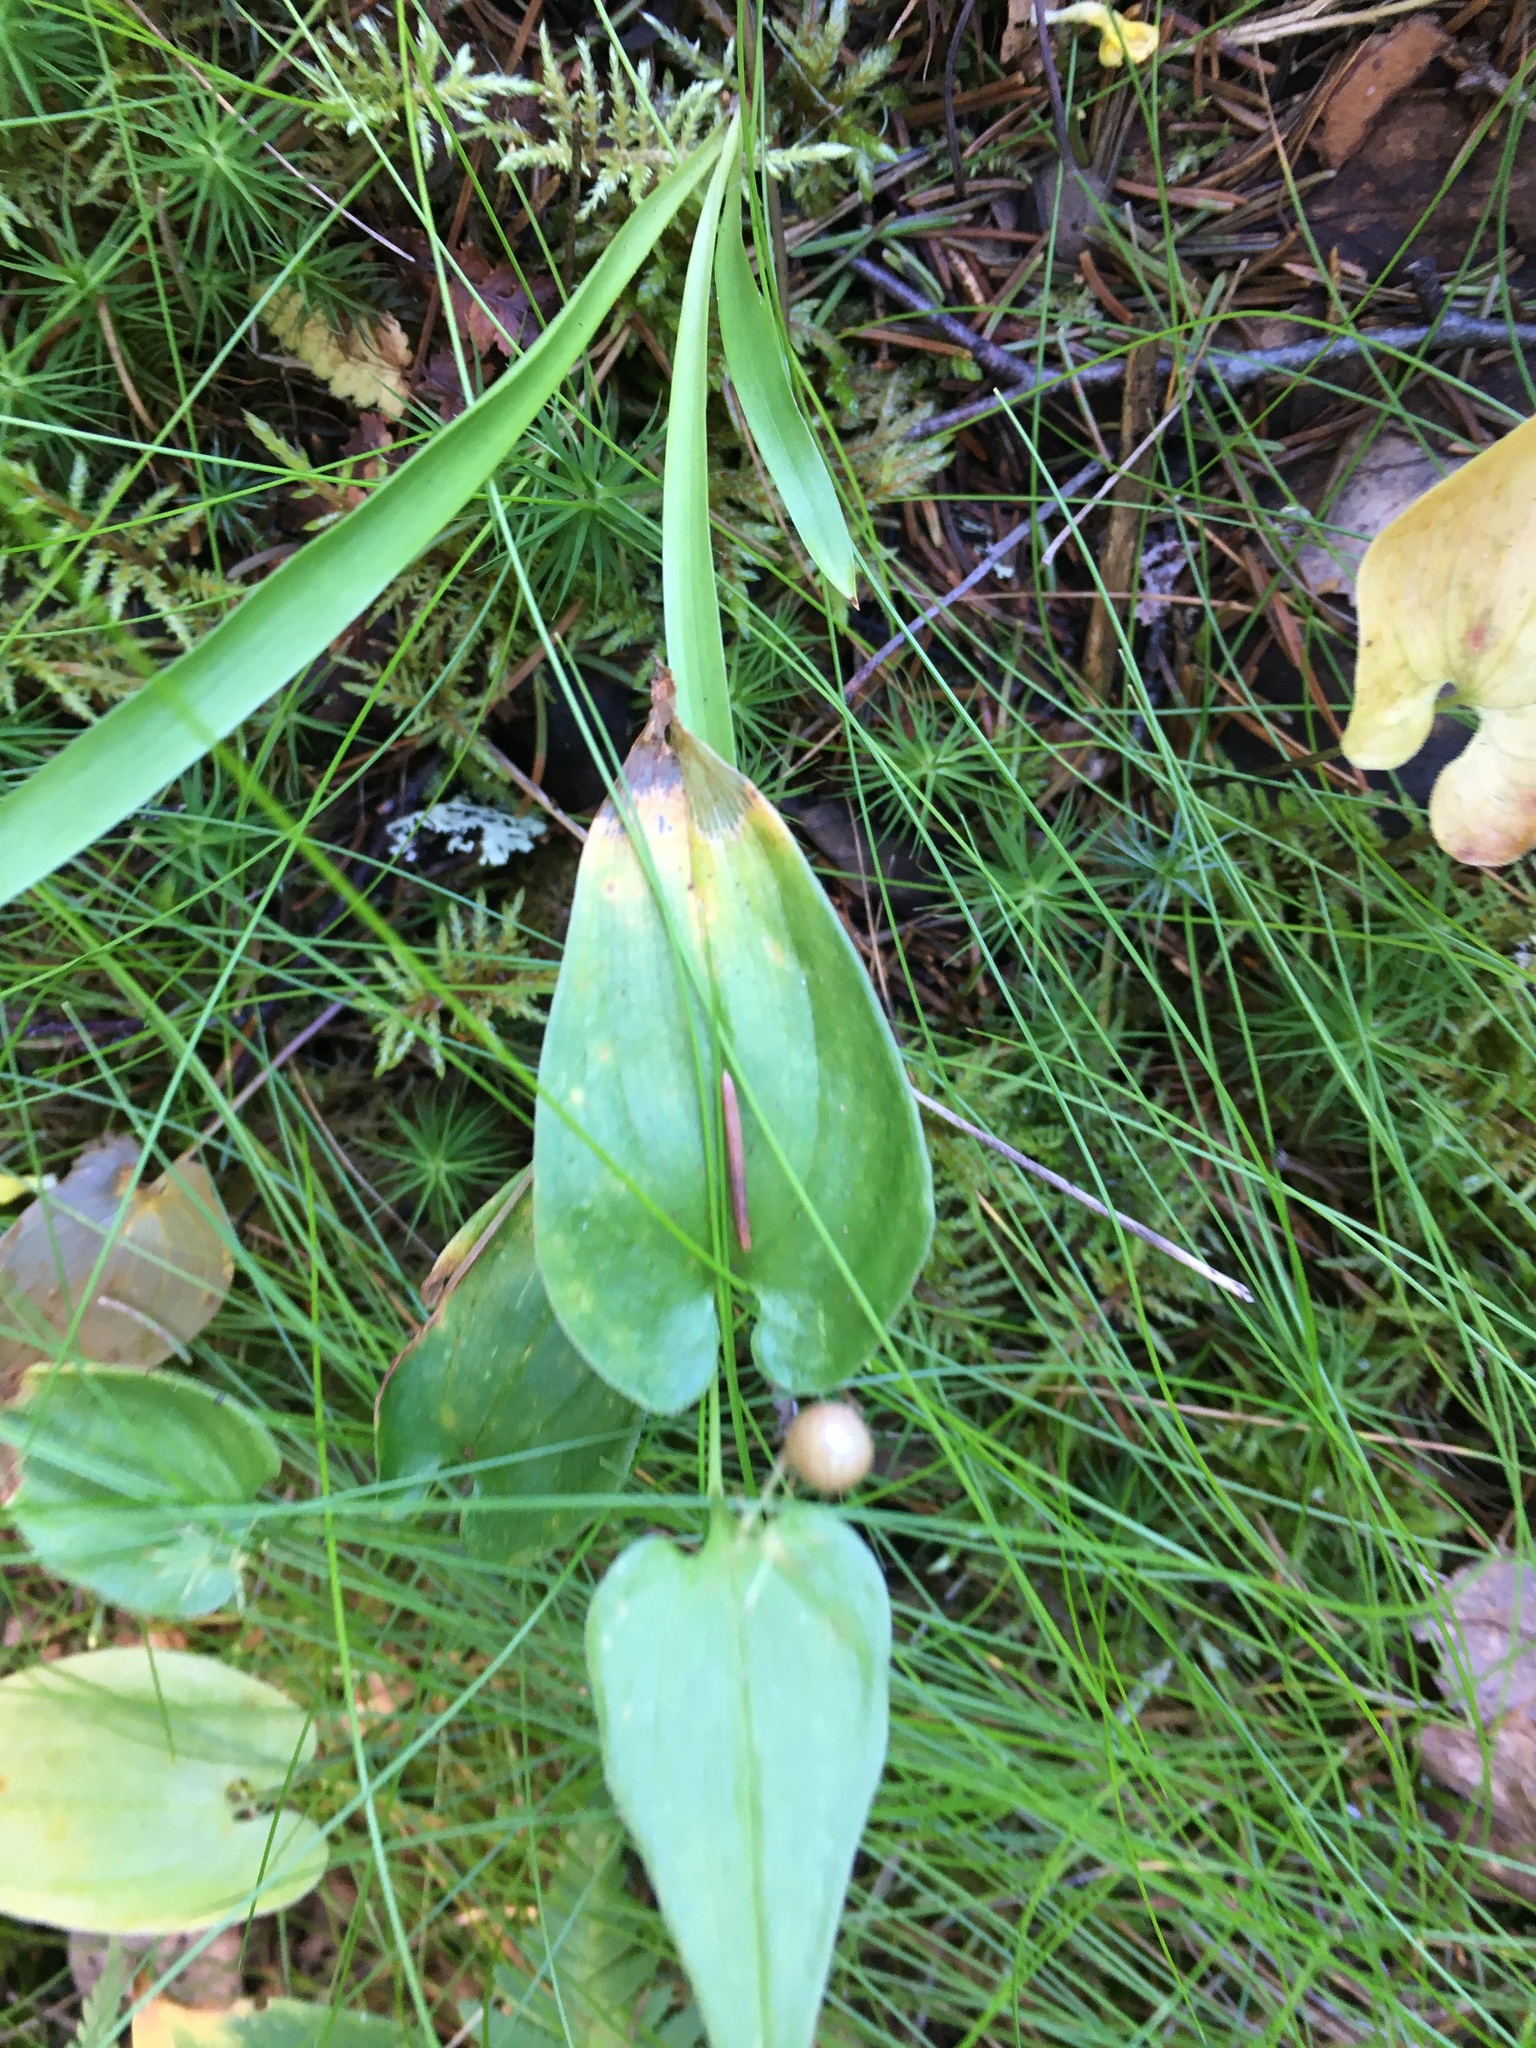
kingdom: Plantae
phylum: Tracheophyta
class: Liliopsida
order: Asparagales
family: Asparagaceae
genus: Maianthemum
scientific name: Maianthemum bifolium
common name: May lily
